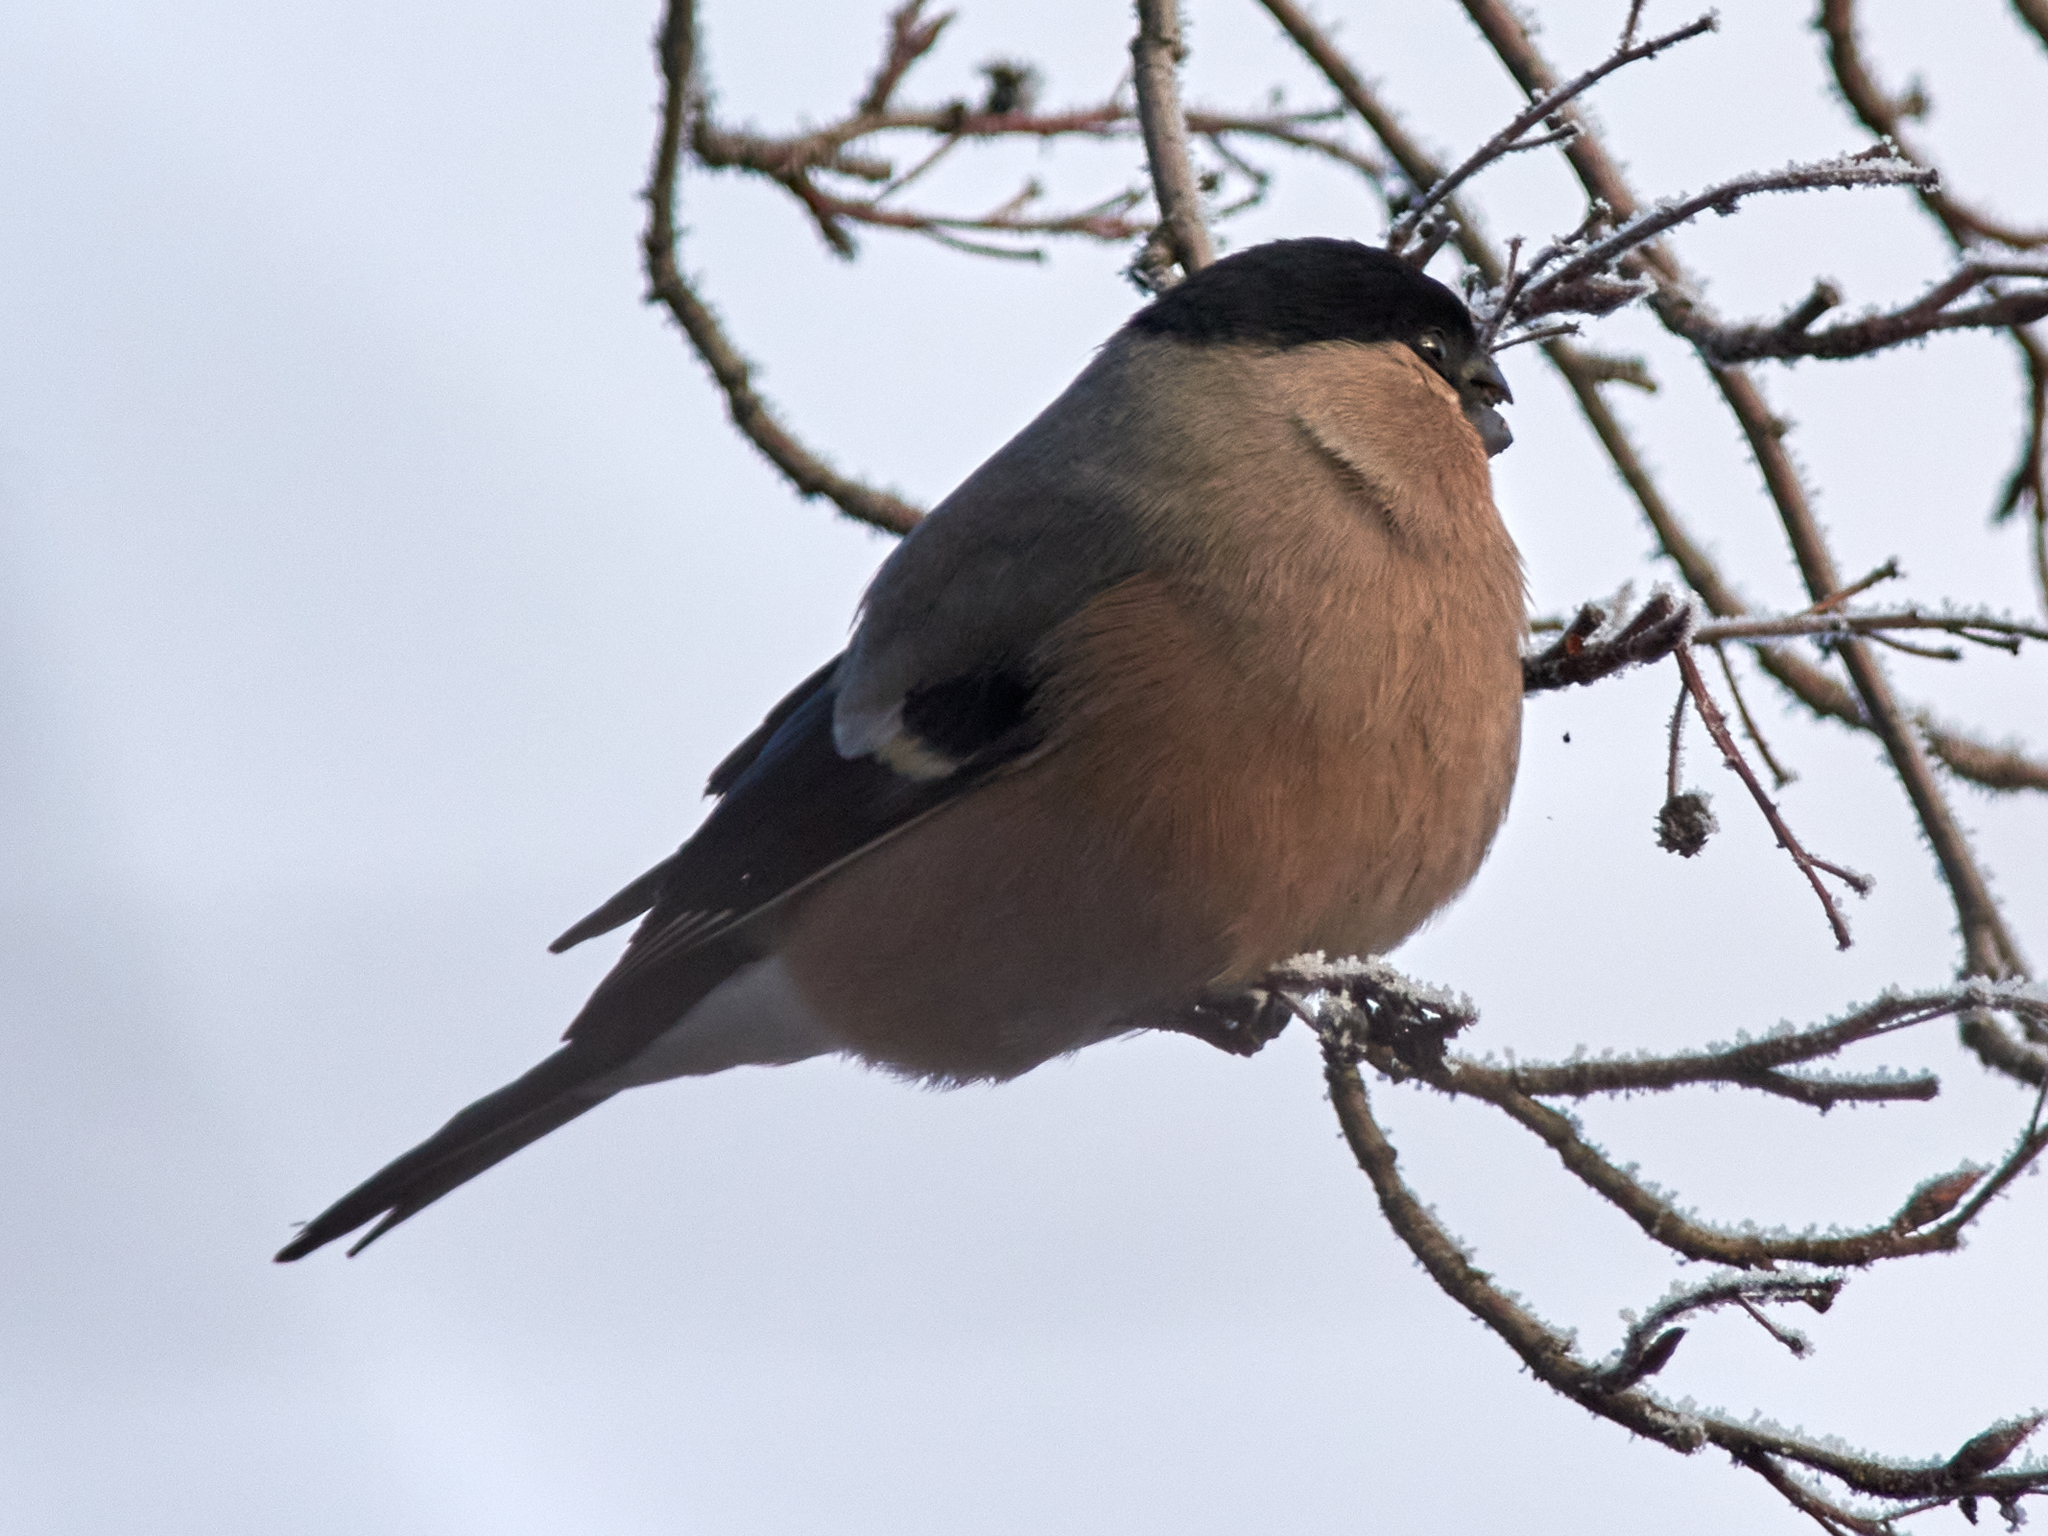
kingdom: Animalia
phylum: Chordata
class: Aves
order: Passeriformes
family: Fringillidae
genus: Pyrrhula
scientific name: Pyrrhula pyrrhula
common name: Eurasian bullfinch
